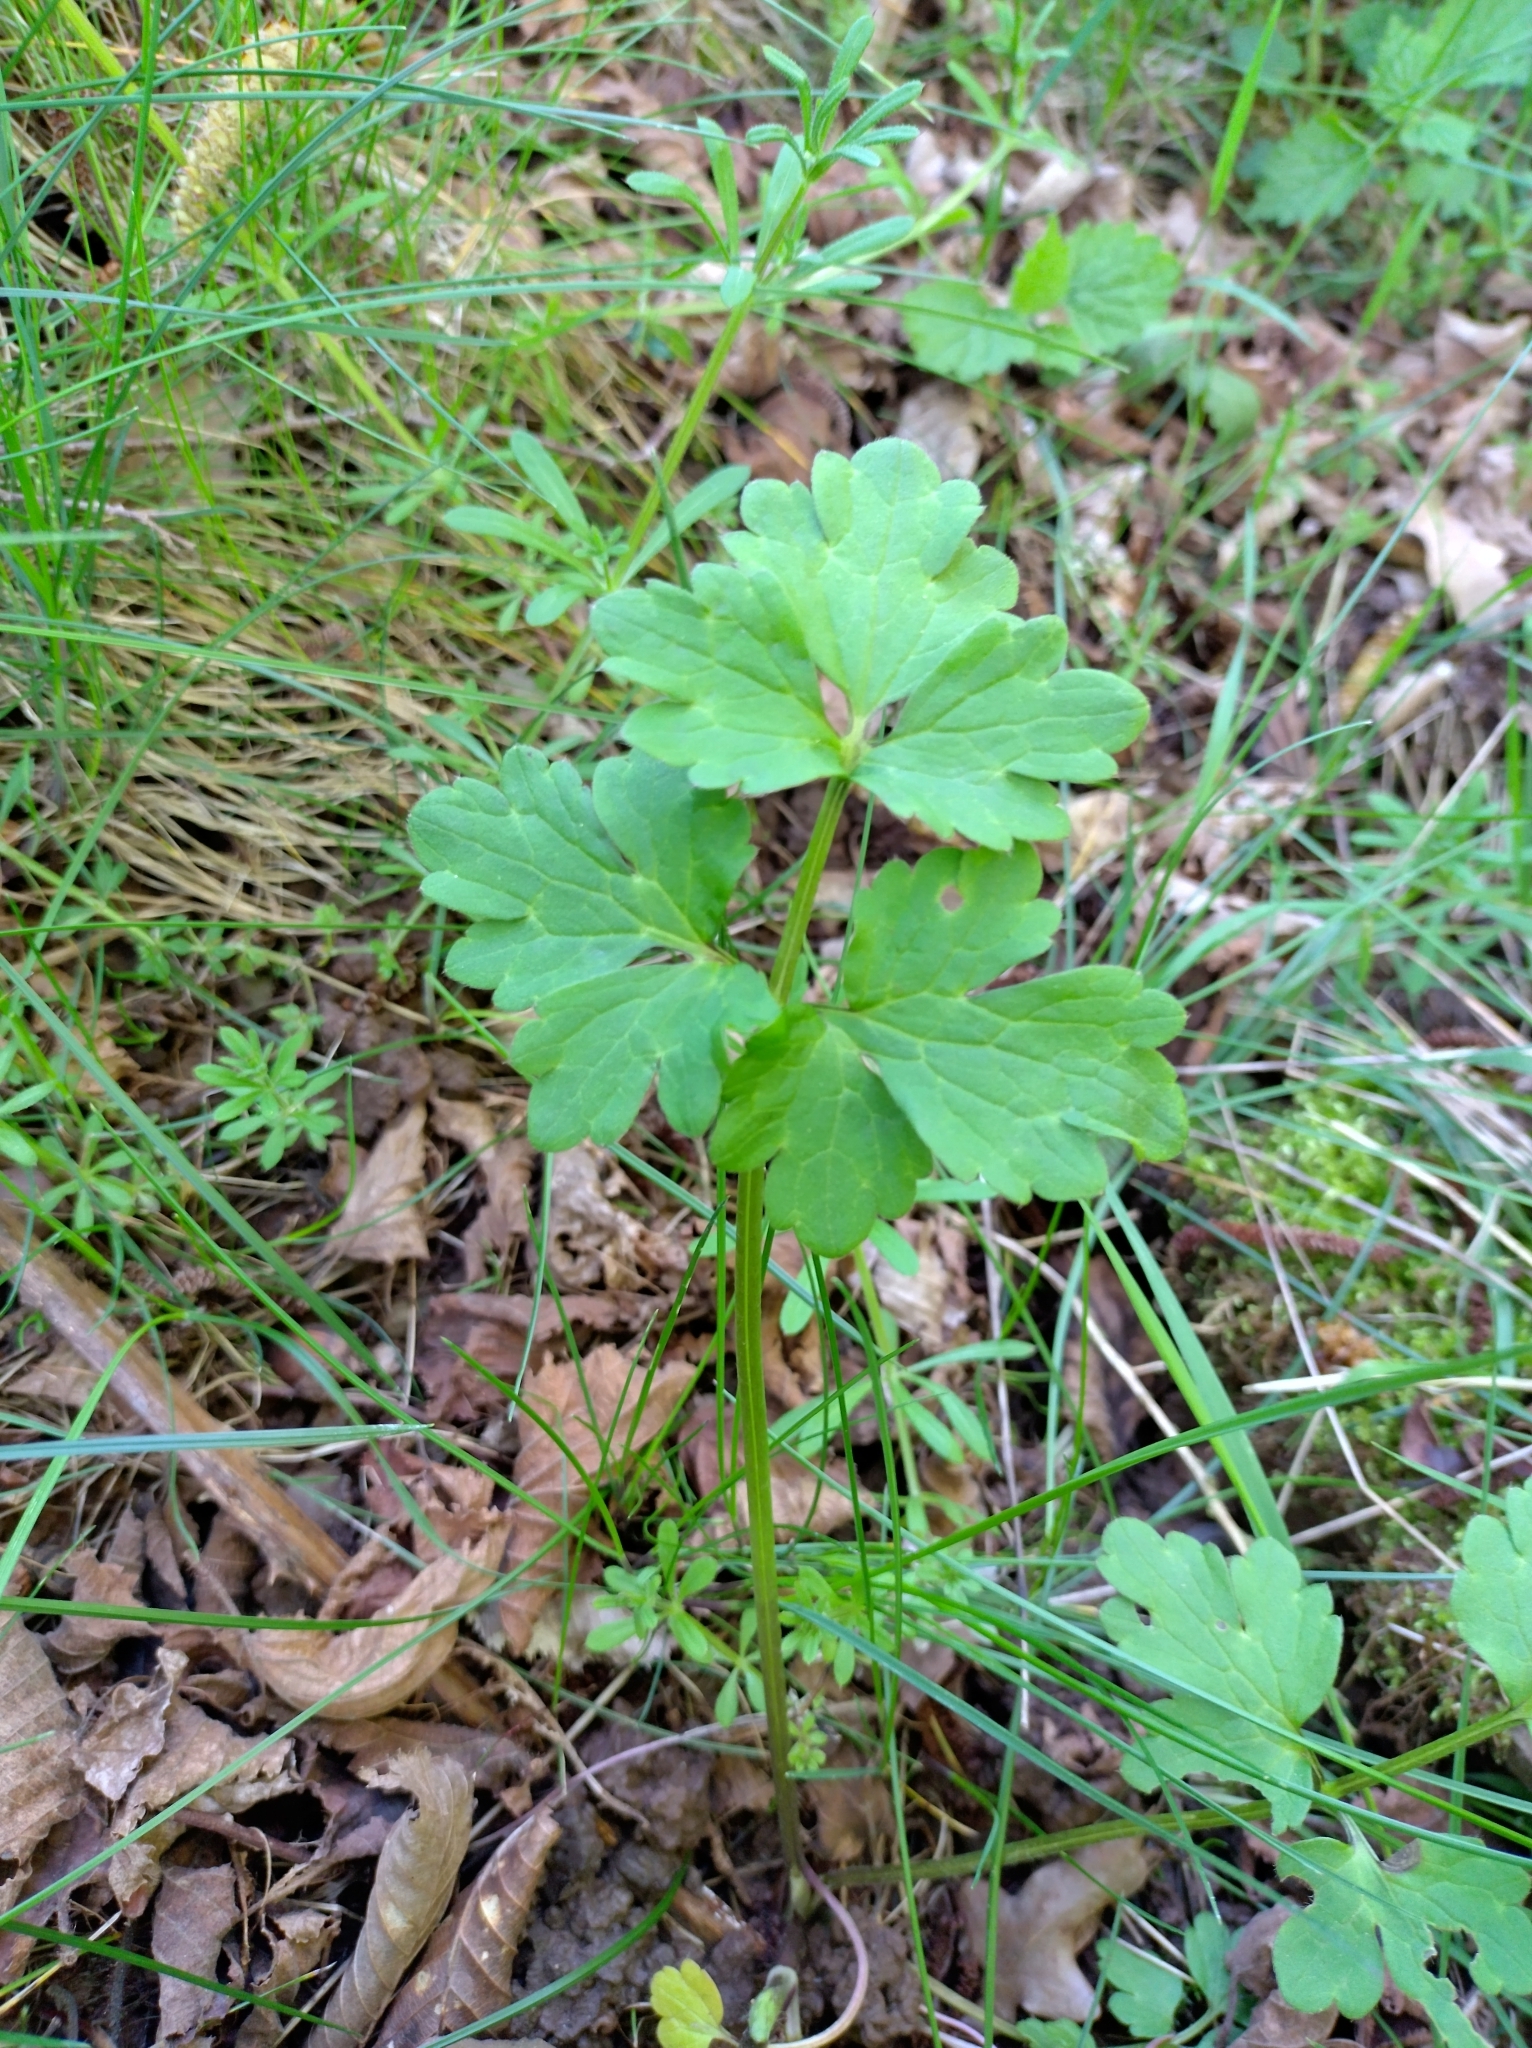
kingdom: Plantae
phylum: Tracheophyta
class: Magnoliopsida
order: Ranunculales
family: Ranunculaceae
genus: Ranunculus
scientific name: Ranunculus repens
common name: Creeping buttercup
